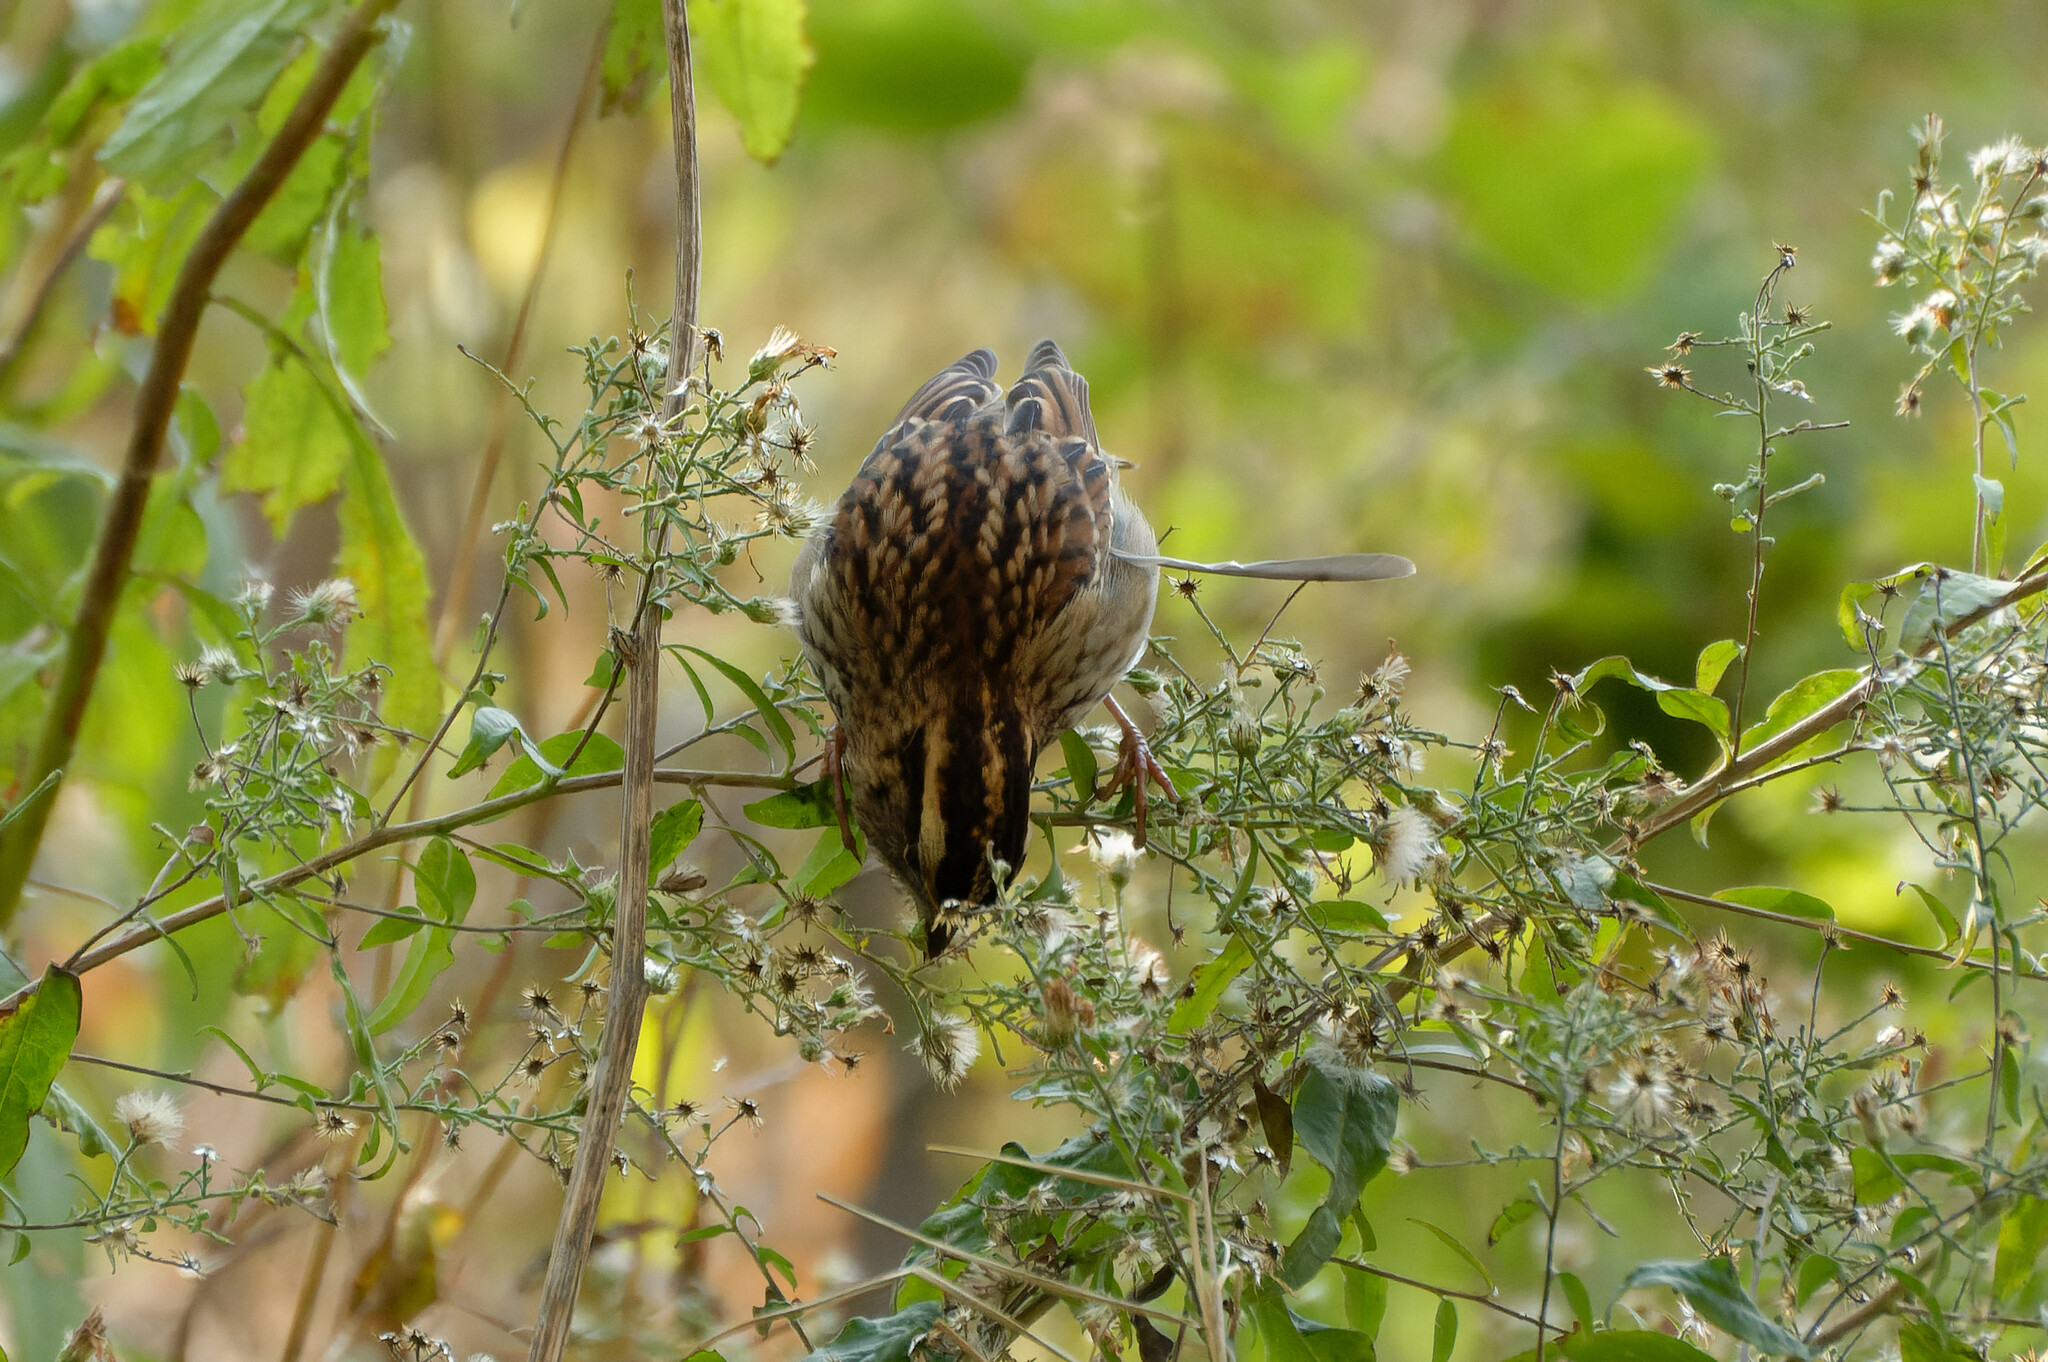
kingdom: Animalia
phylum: Chordata
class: Aves
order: Passeriformes
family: Passerellidae
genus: Zonotrichia
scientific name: Zonotrichia albicollis
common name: White-throated sparrow
